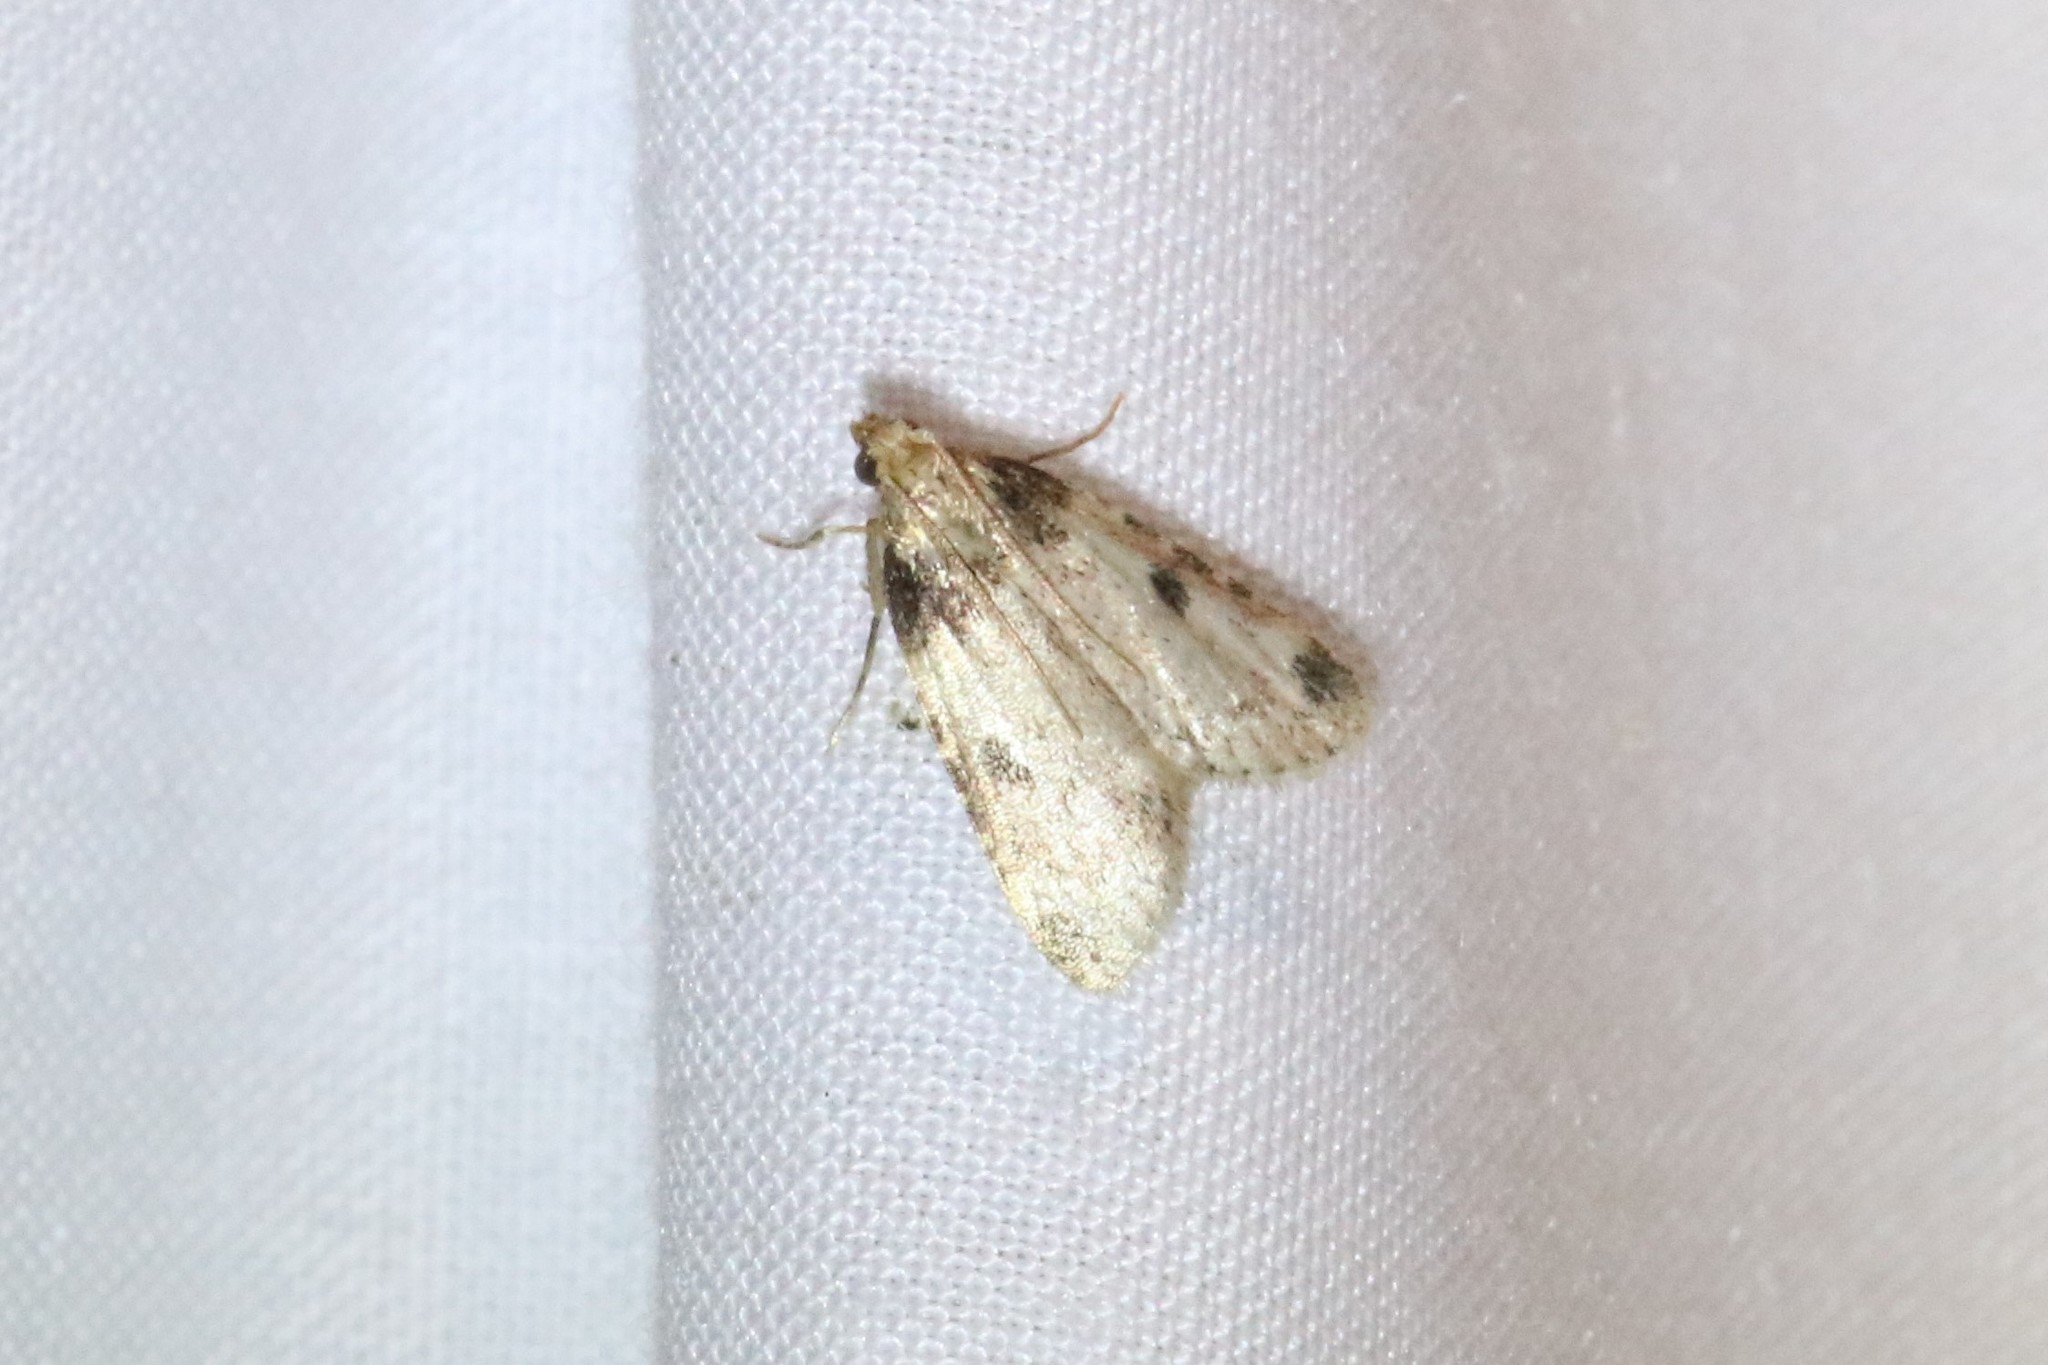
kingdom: Animalia
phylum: Arthropoda
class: Insecta
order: Lepidoptera
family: Pyralidae
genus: Aglossa
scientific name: Aglossa costiferalis
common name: Calico pyralid moth
